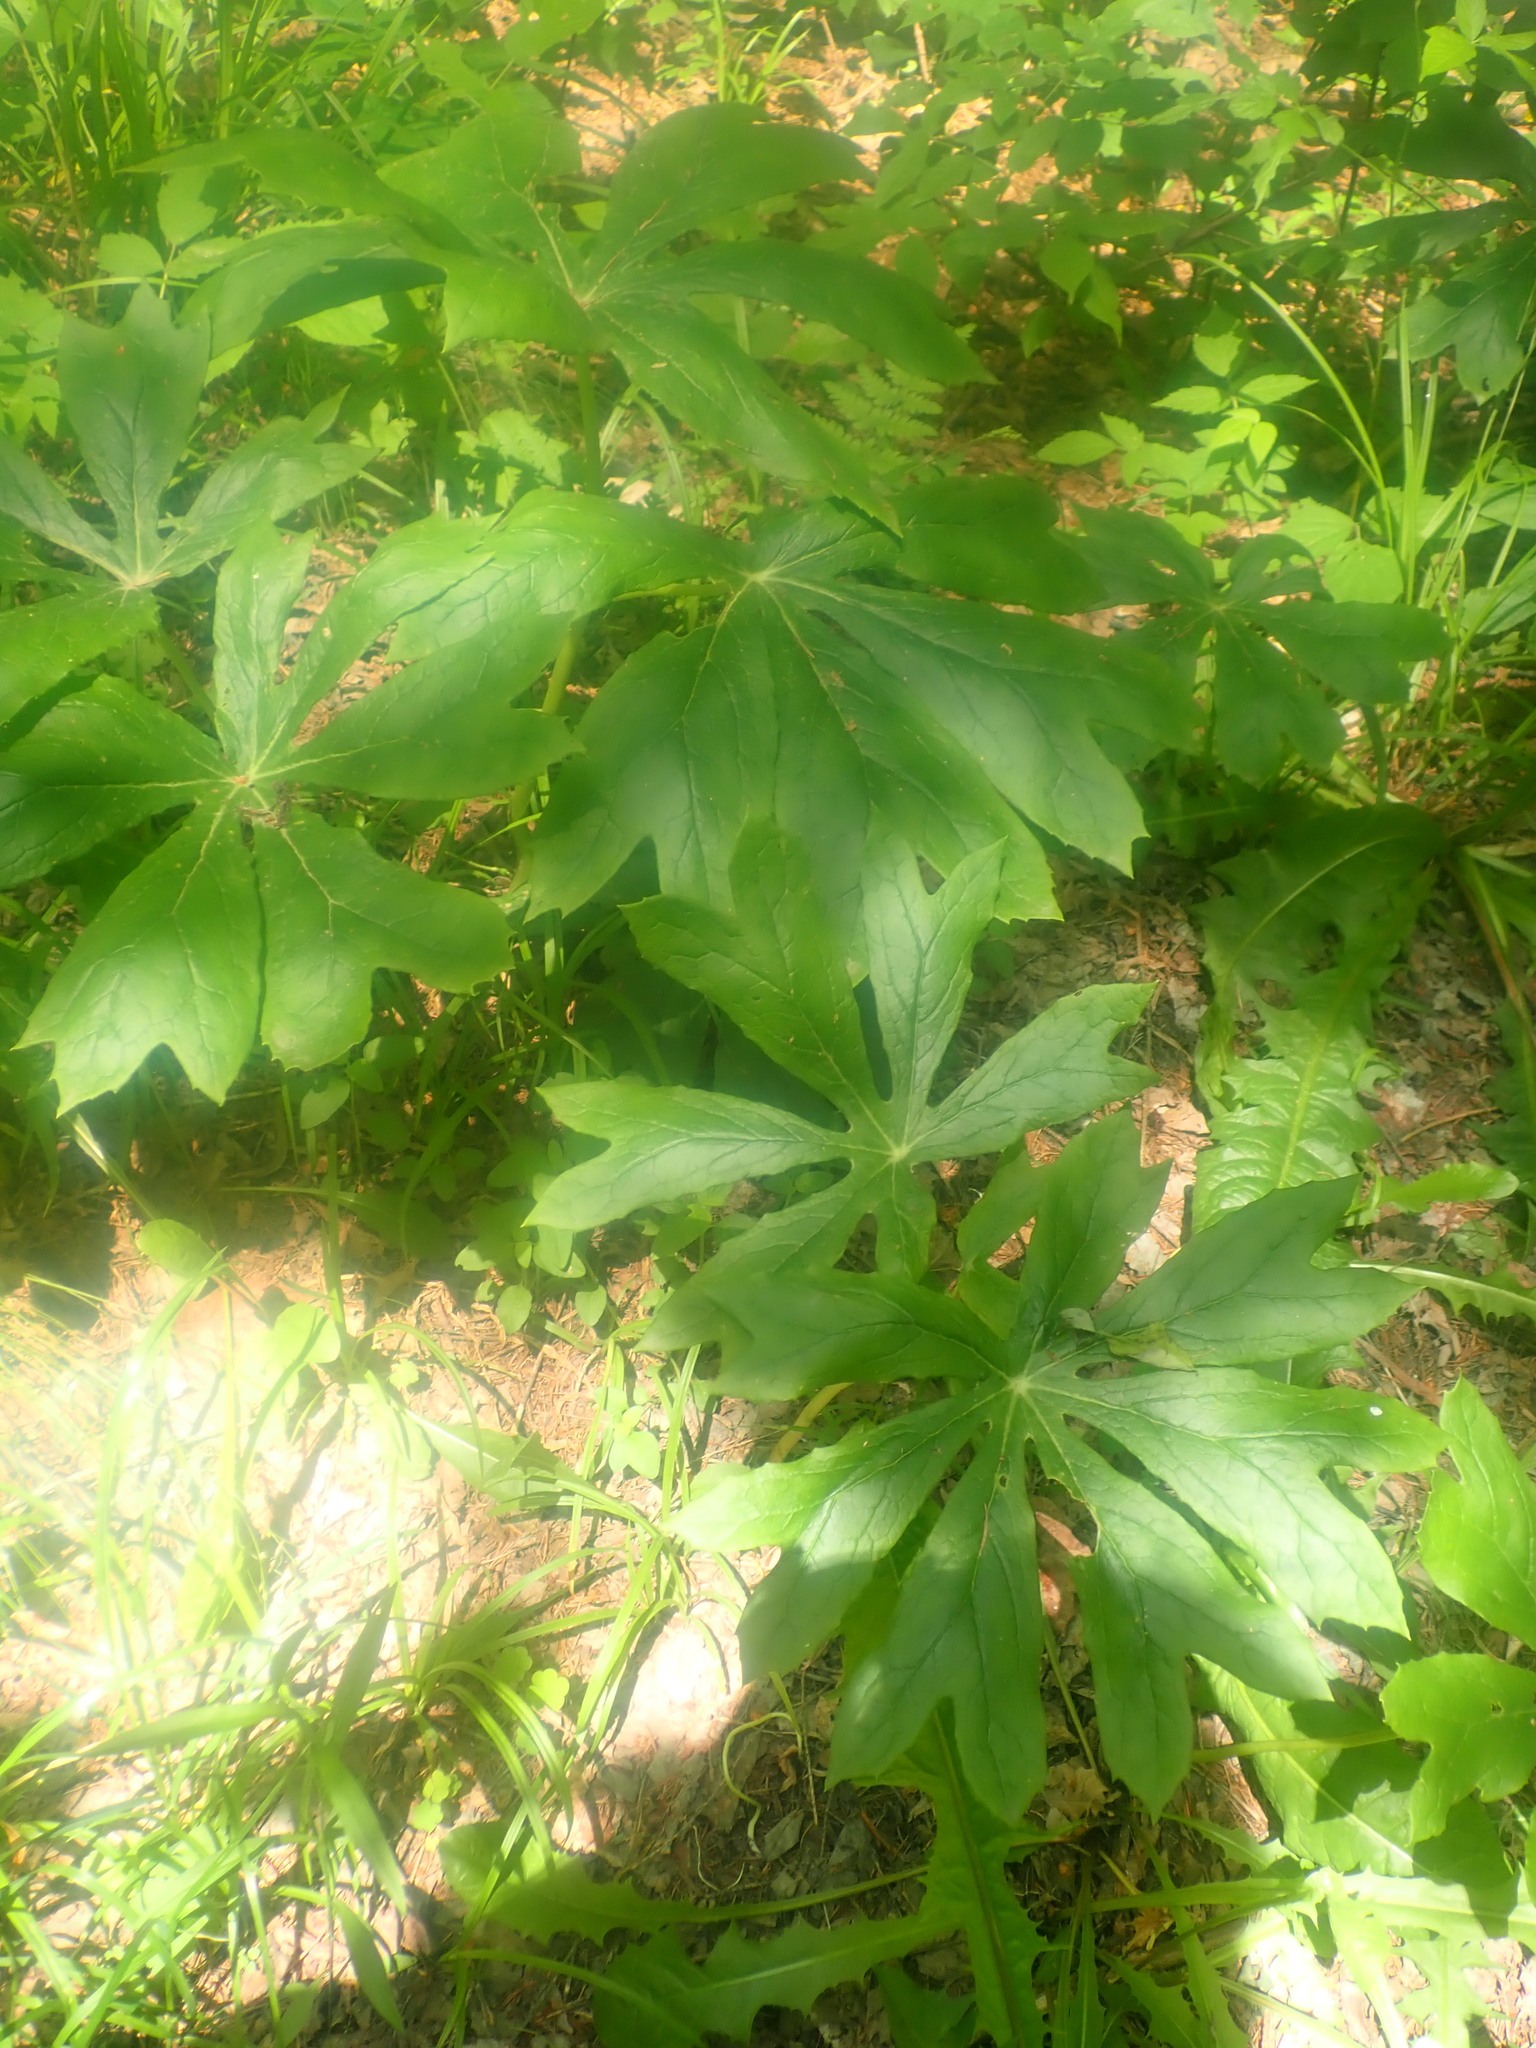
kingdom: Plantae
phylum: Tracheophyta
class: Magnoliopsida
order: Ranunculales
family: Berberidaceae
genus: Podophyllum
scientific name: Podophyllum peltatum
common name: Wild mandrake
